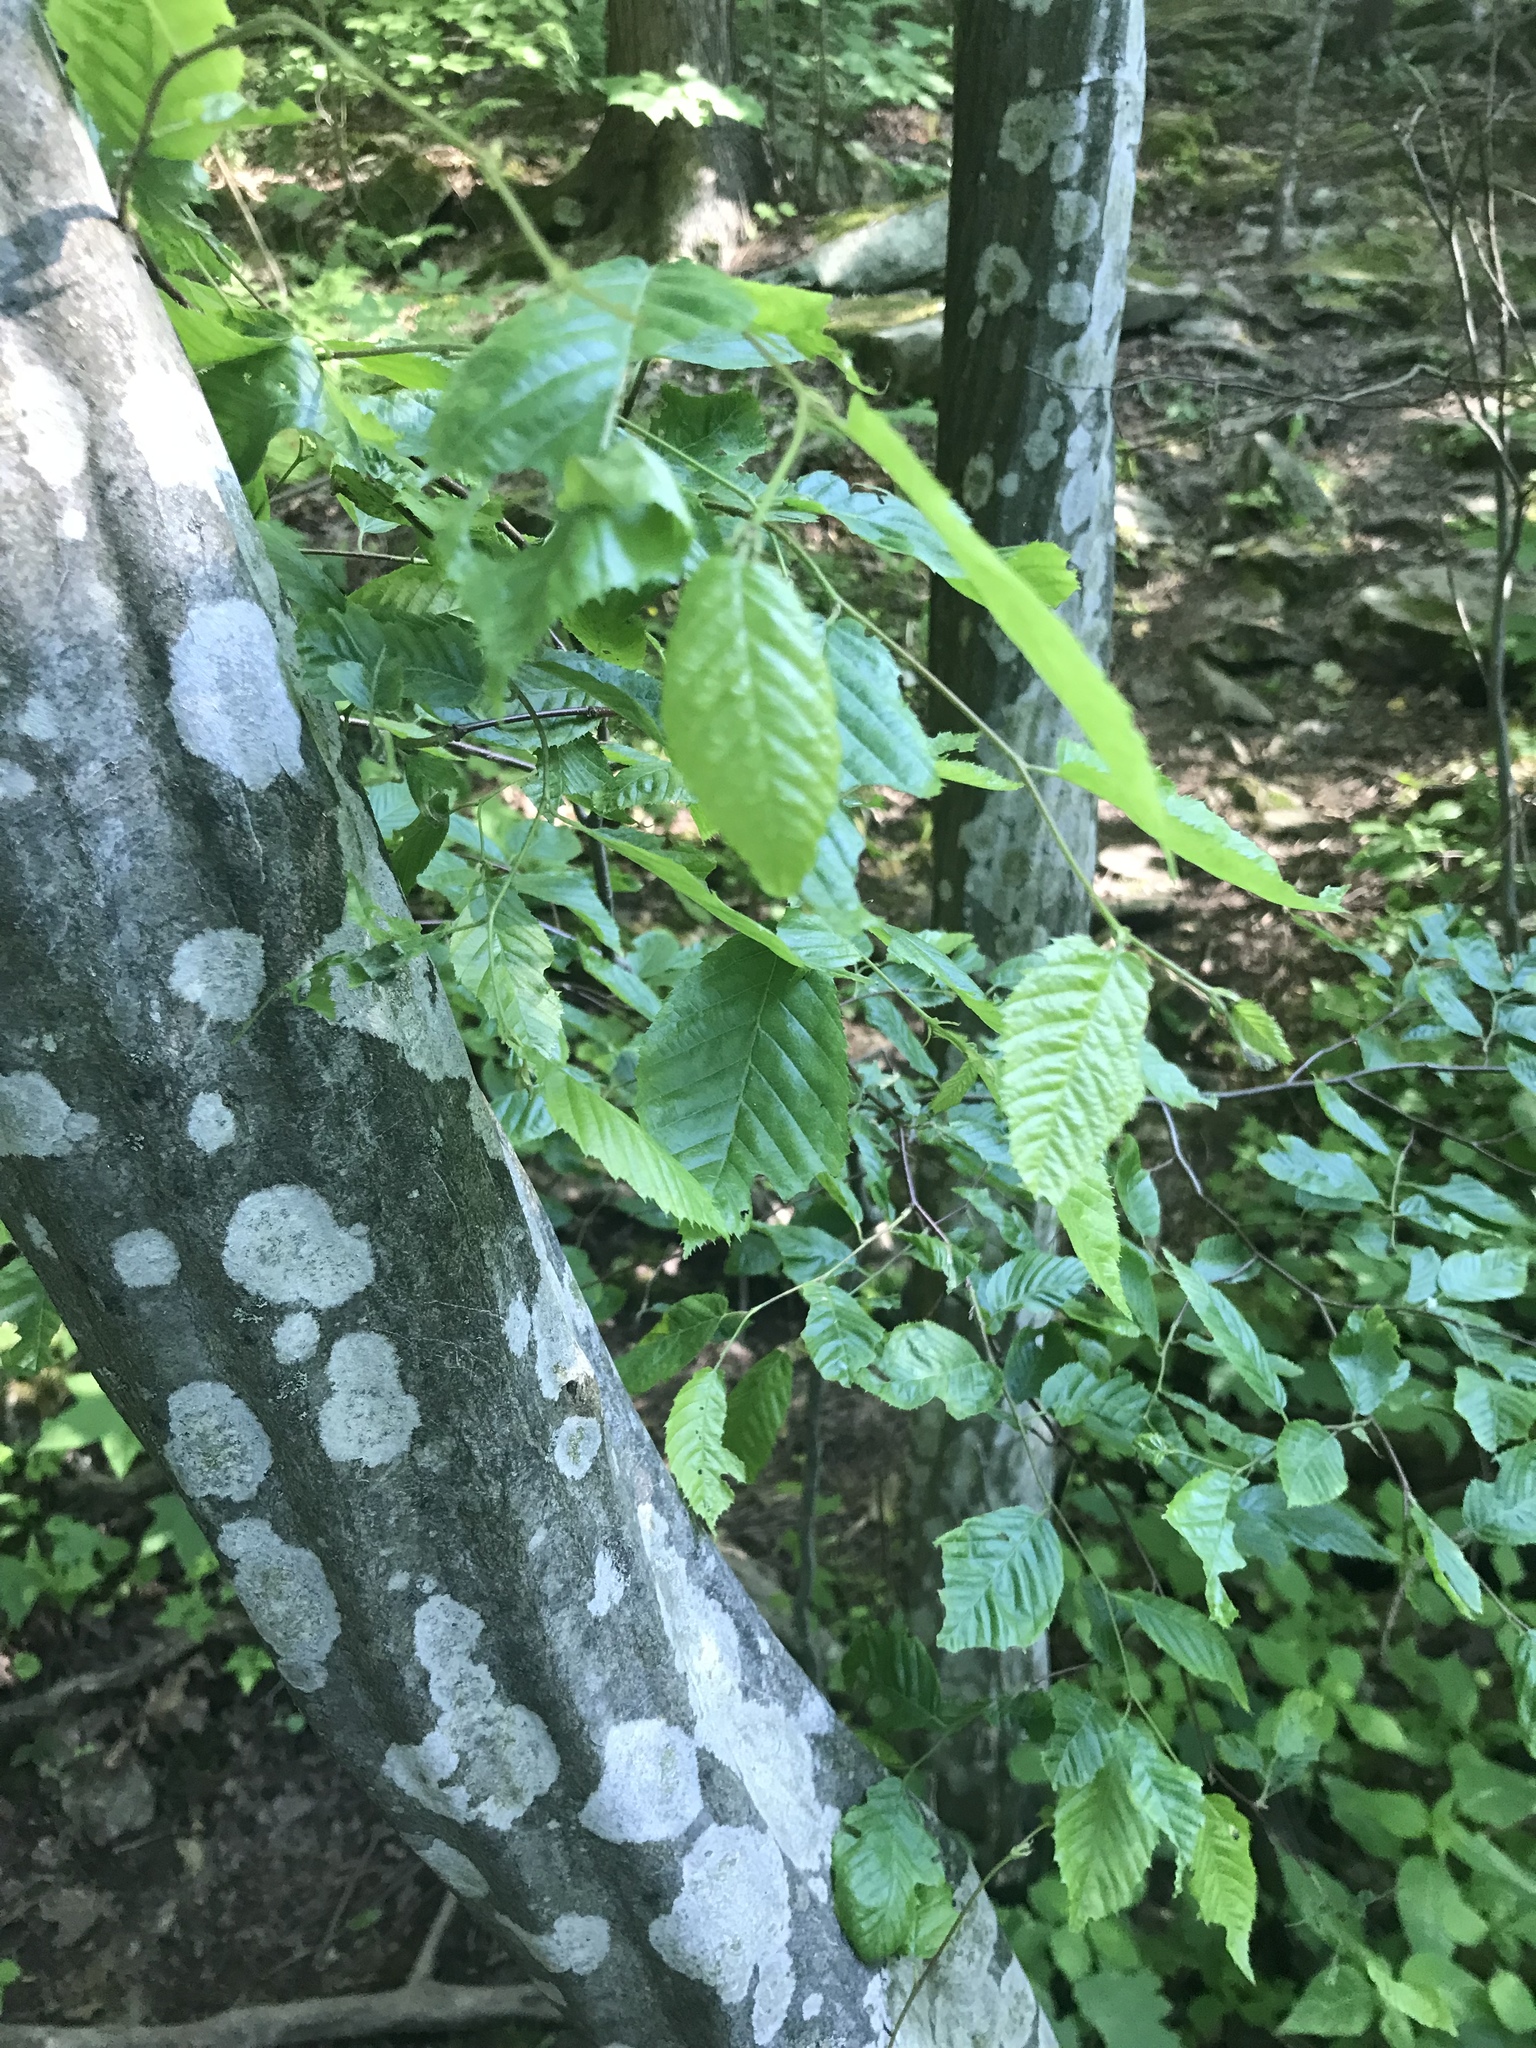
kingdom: Plantae
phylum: Tracheophyta
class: Magnoliopsida
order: Fagales
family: Betulaceae
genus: Carpinus
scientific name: Carpinus caroliniana
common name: American hornbeam
